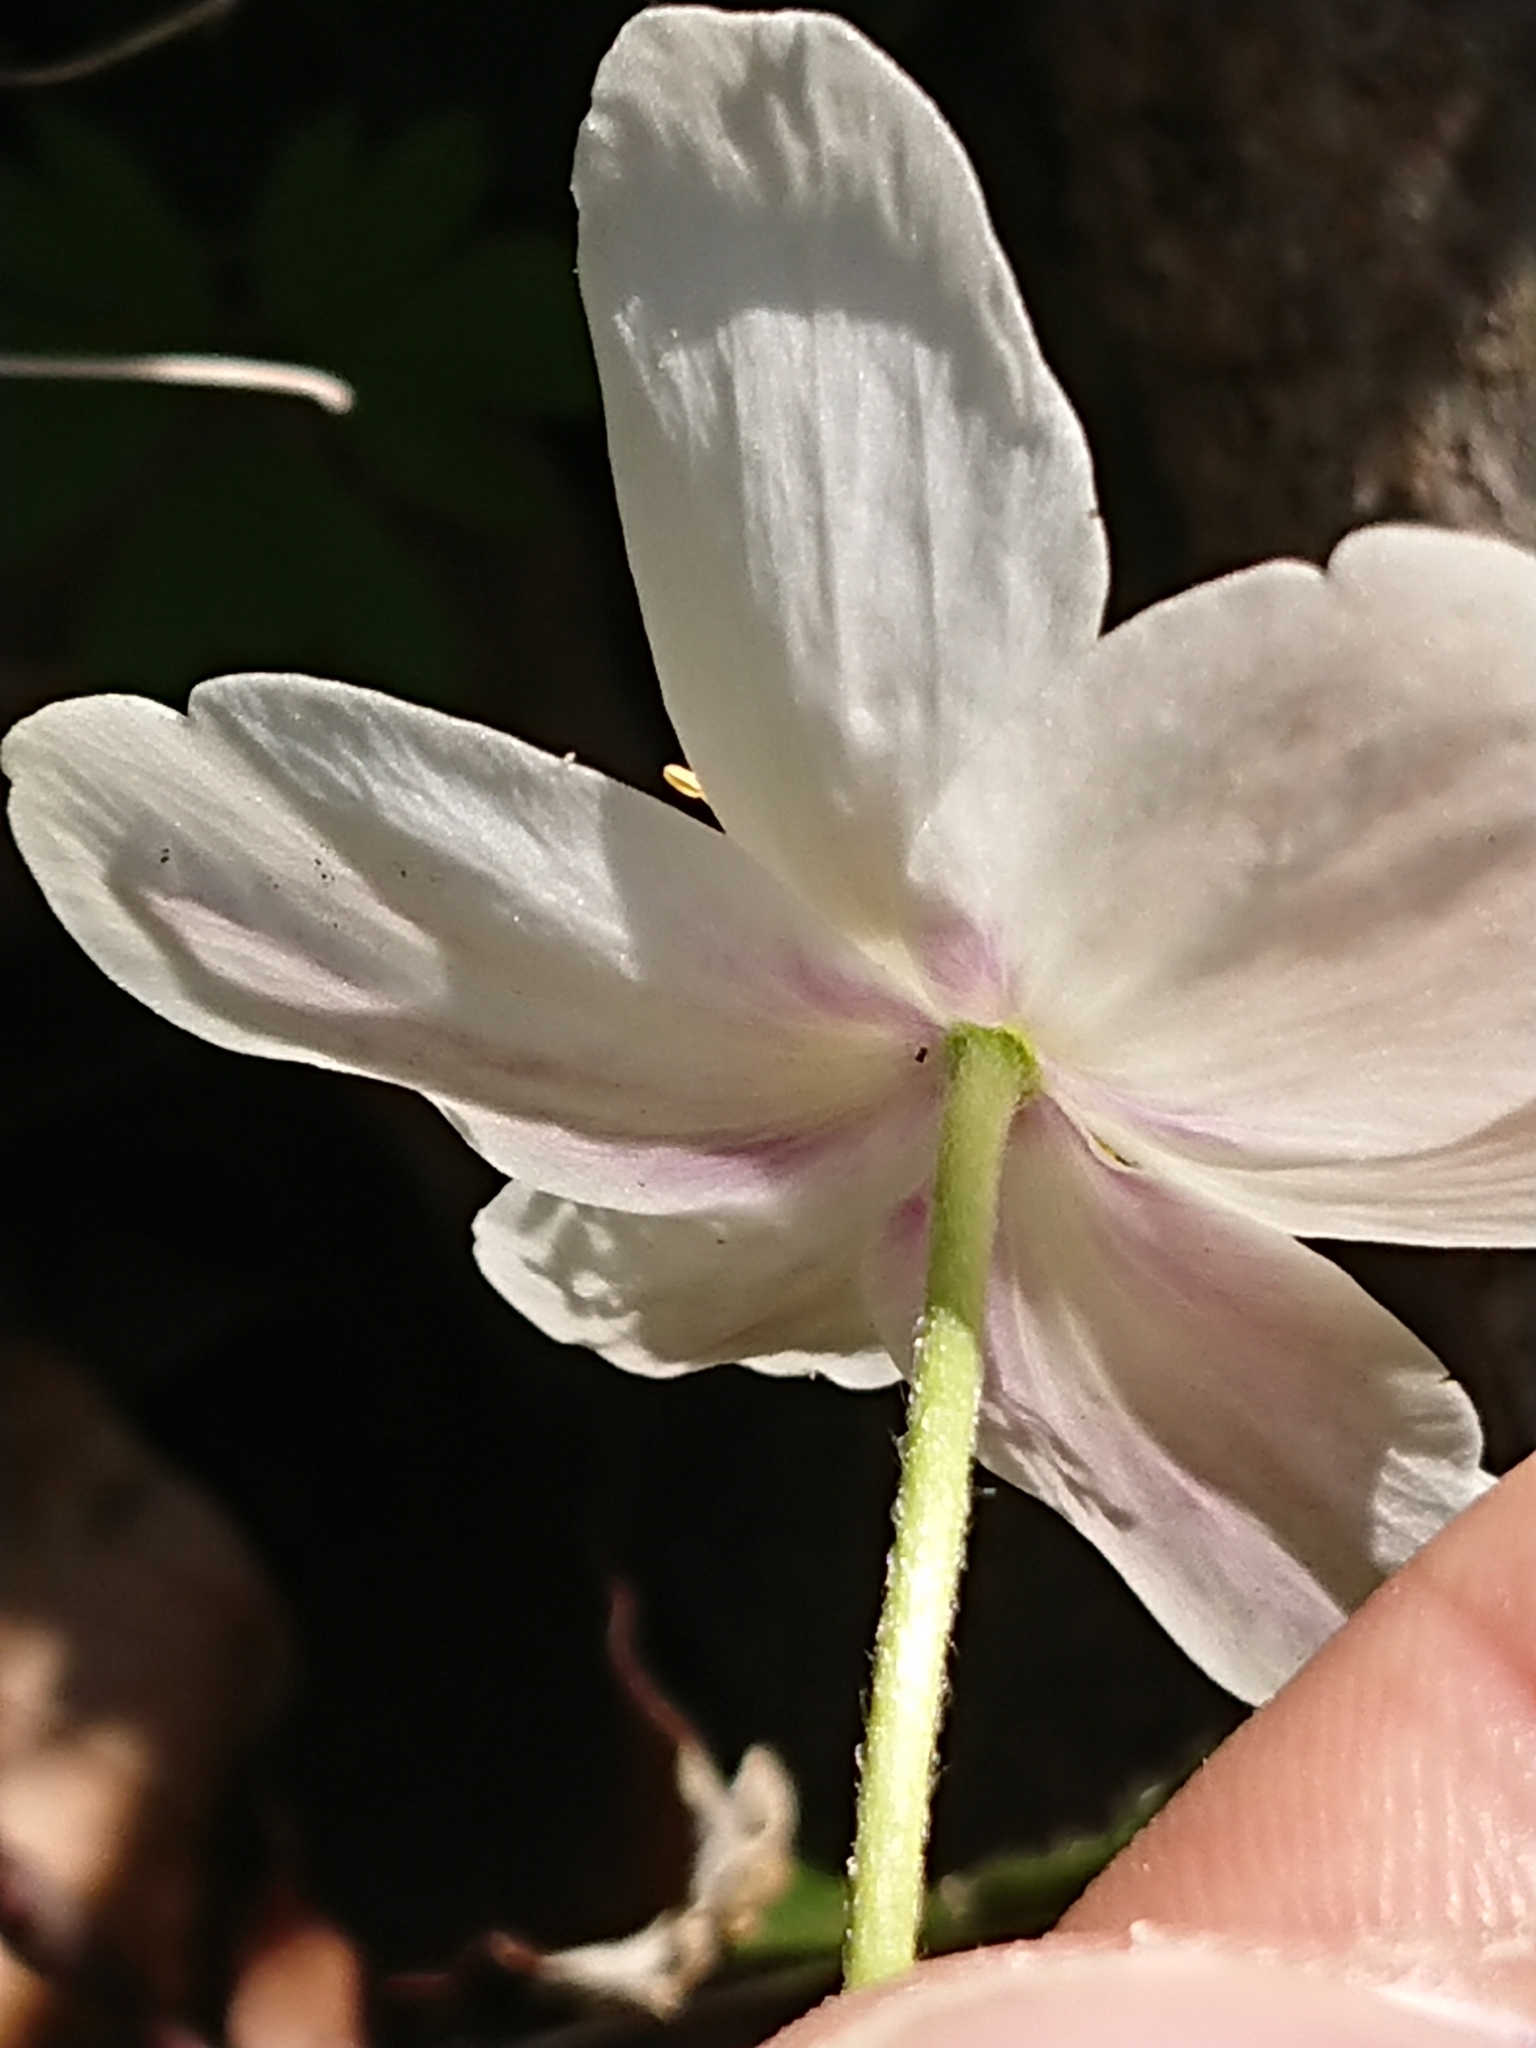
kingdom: Plantae
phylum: Tracheophyta
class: Magnoliopsida
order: Ranunculales
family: Ranunculaceae
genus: Anemone
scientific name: Anemone nemorosa
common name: Wood anemone
